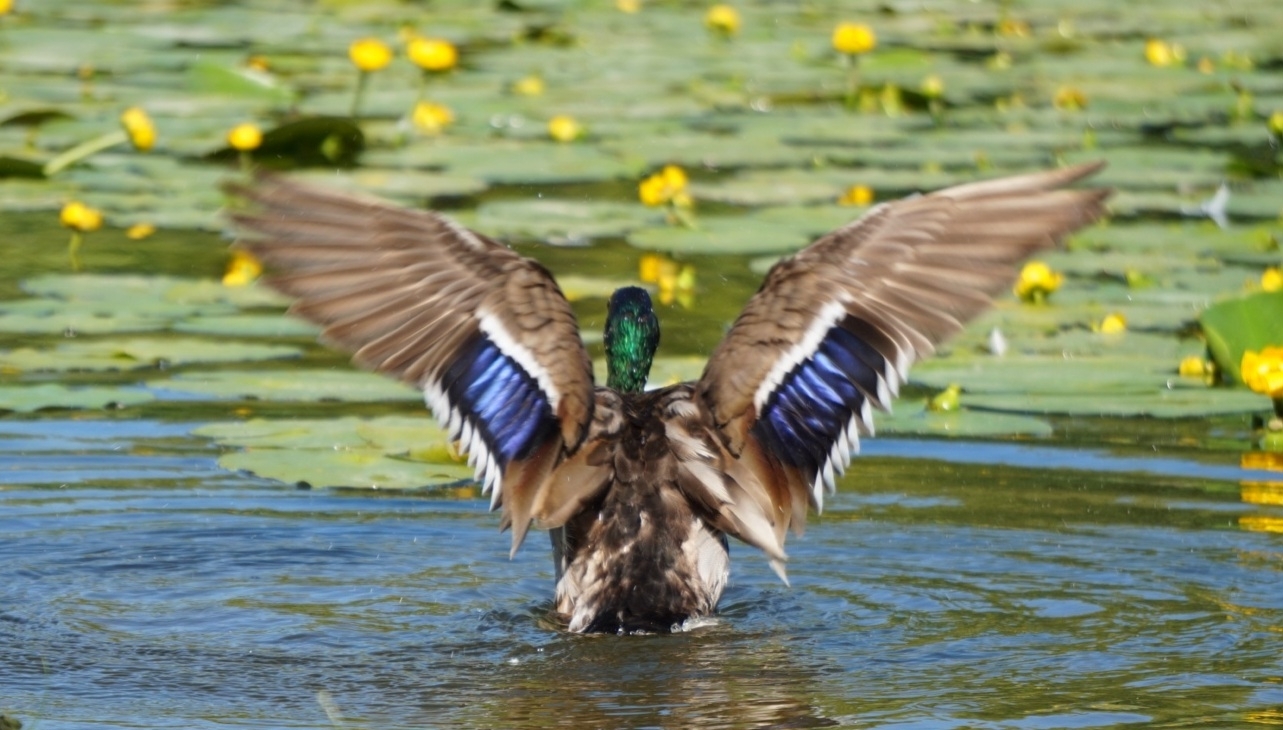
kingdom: Animalia
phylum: Chordata
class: Aves
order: Anseriformes
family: Anatidae
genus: Anas
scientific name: Anas platyrhynchos
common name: Mallard
